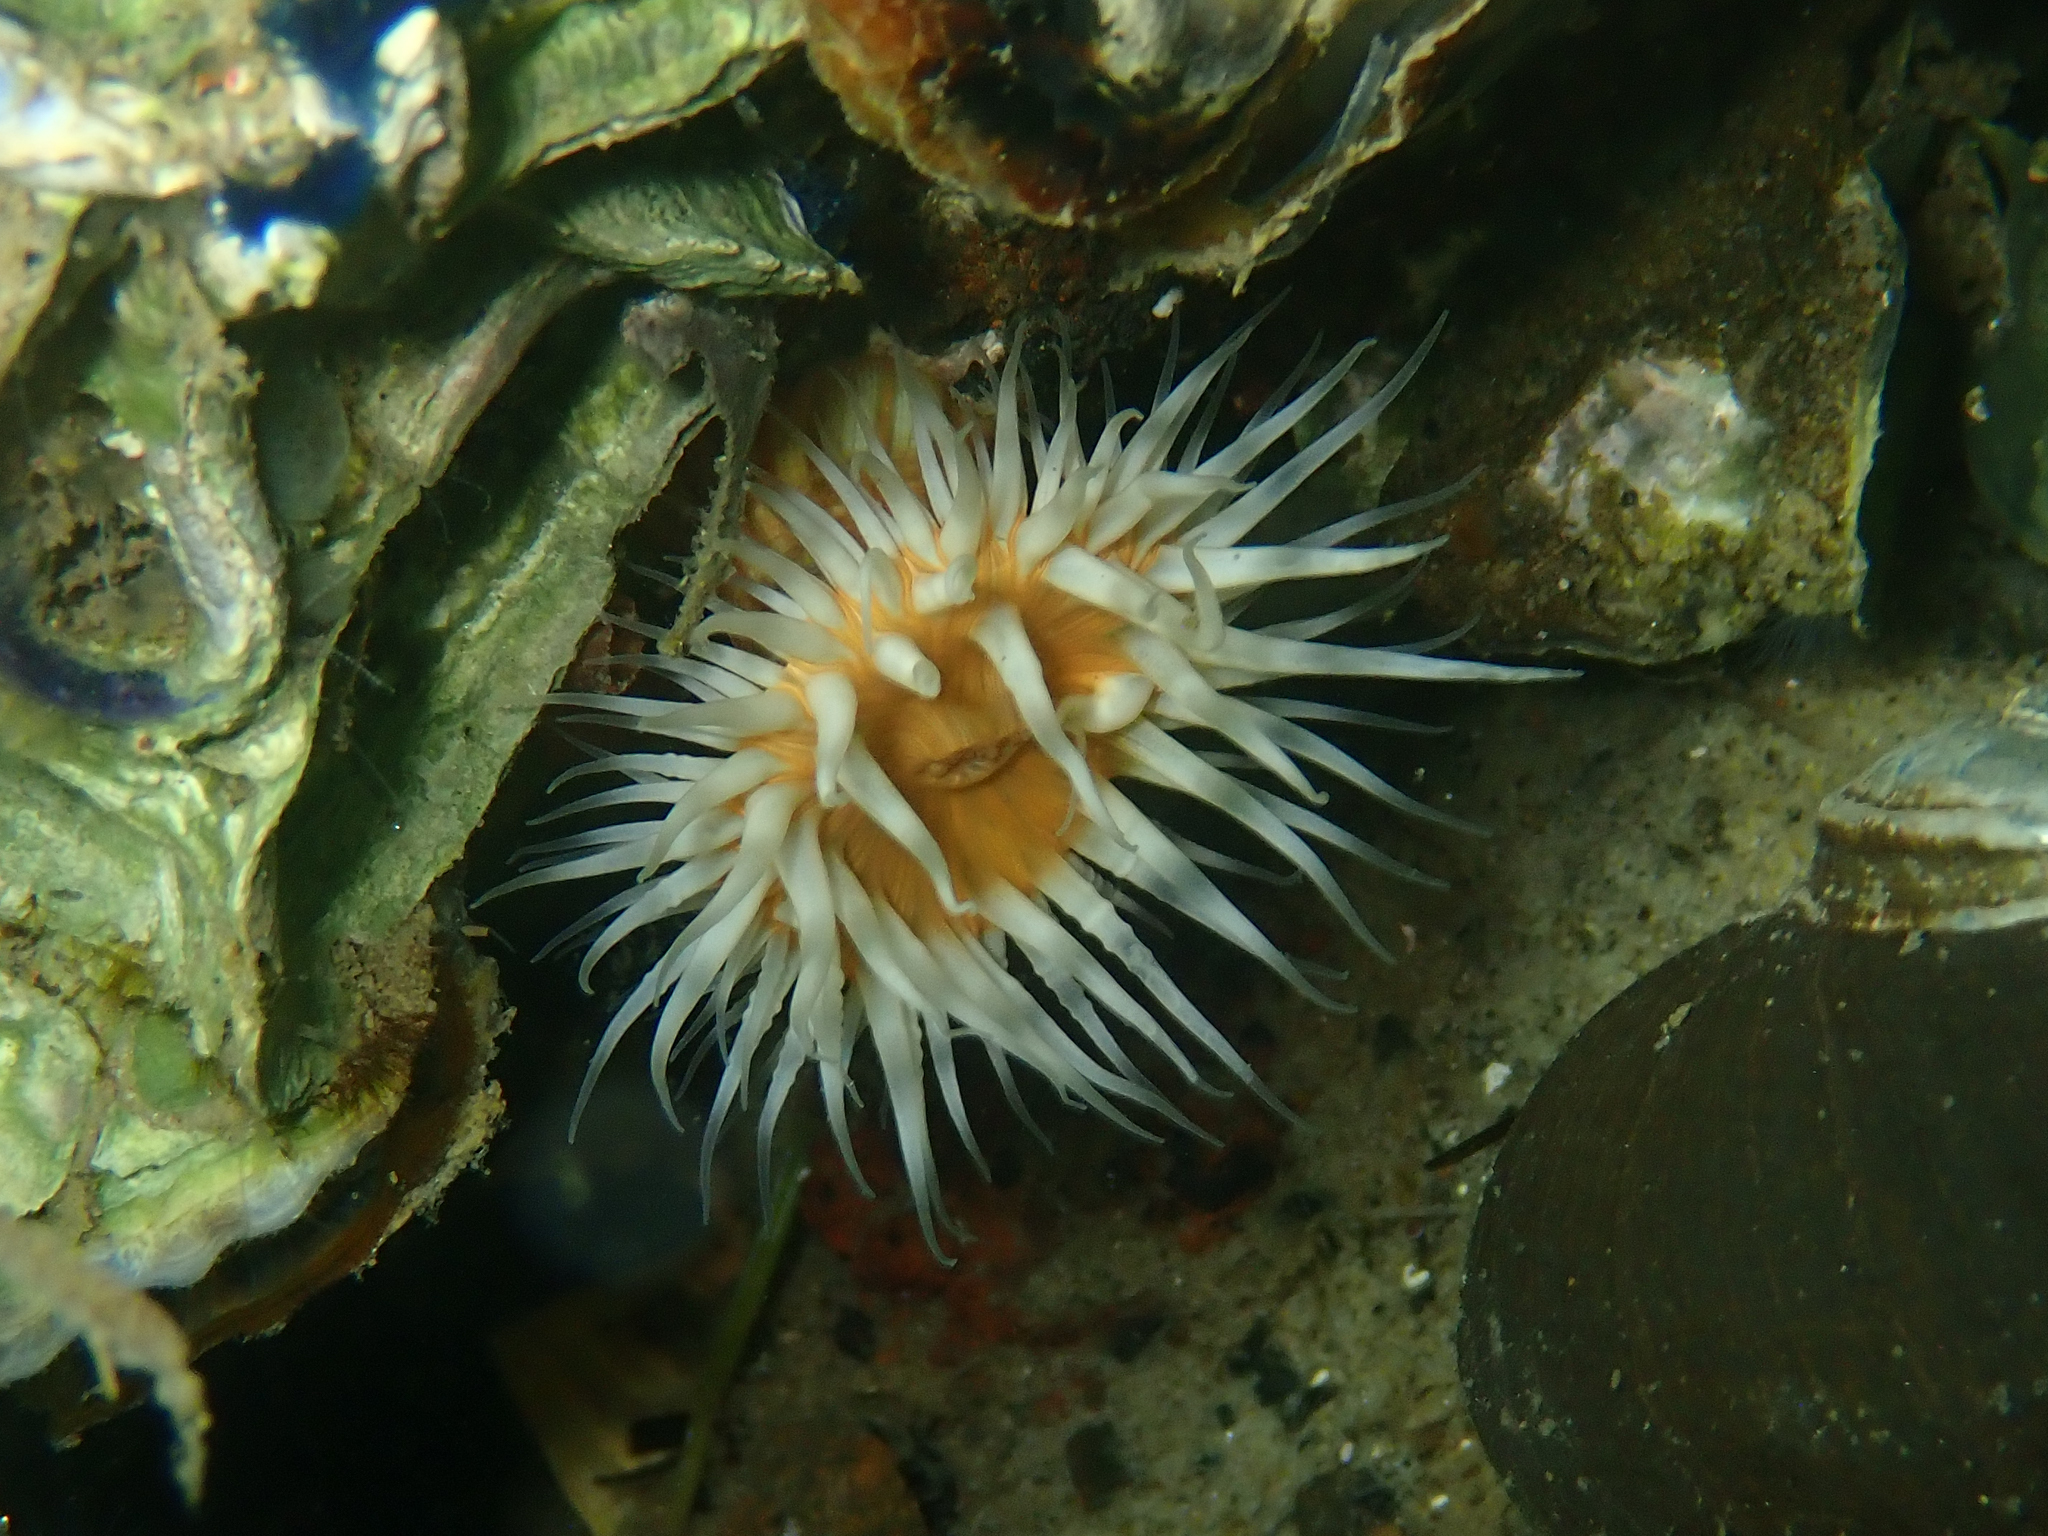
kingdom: Animalia
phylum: Cnidaria
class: Anthozoa
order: Actiniaria
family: Sagartiidae
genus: Anthothoe
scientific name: Anthothoe albocincta
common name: Orange striped anemone
